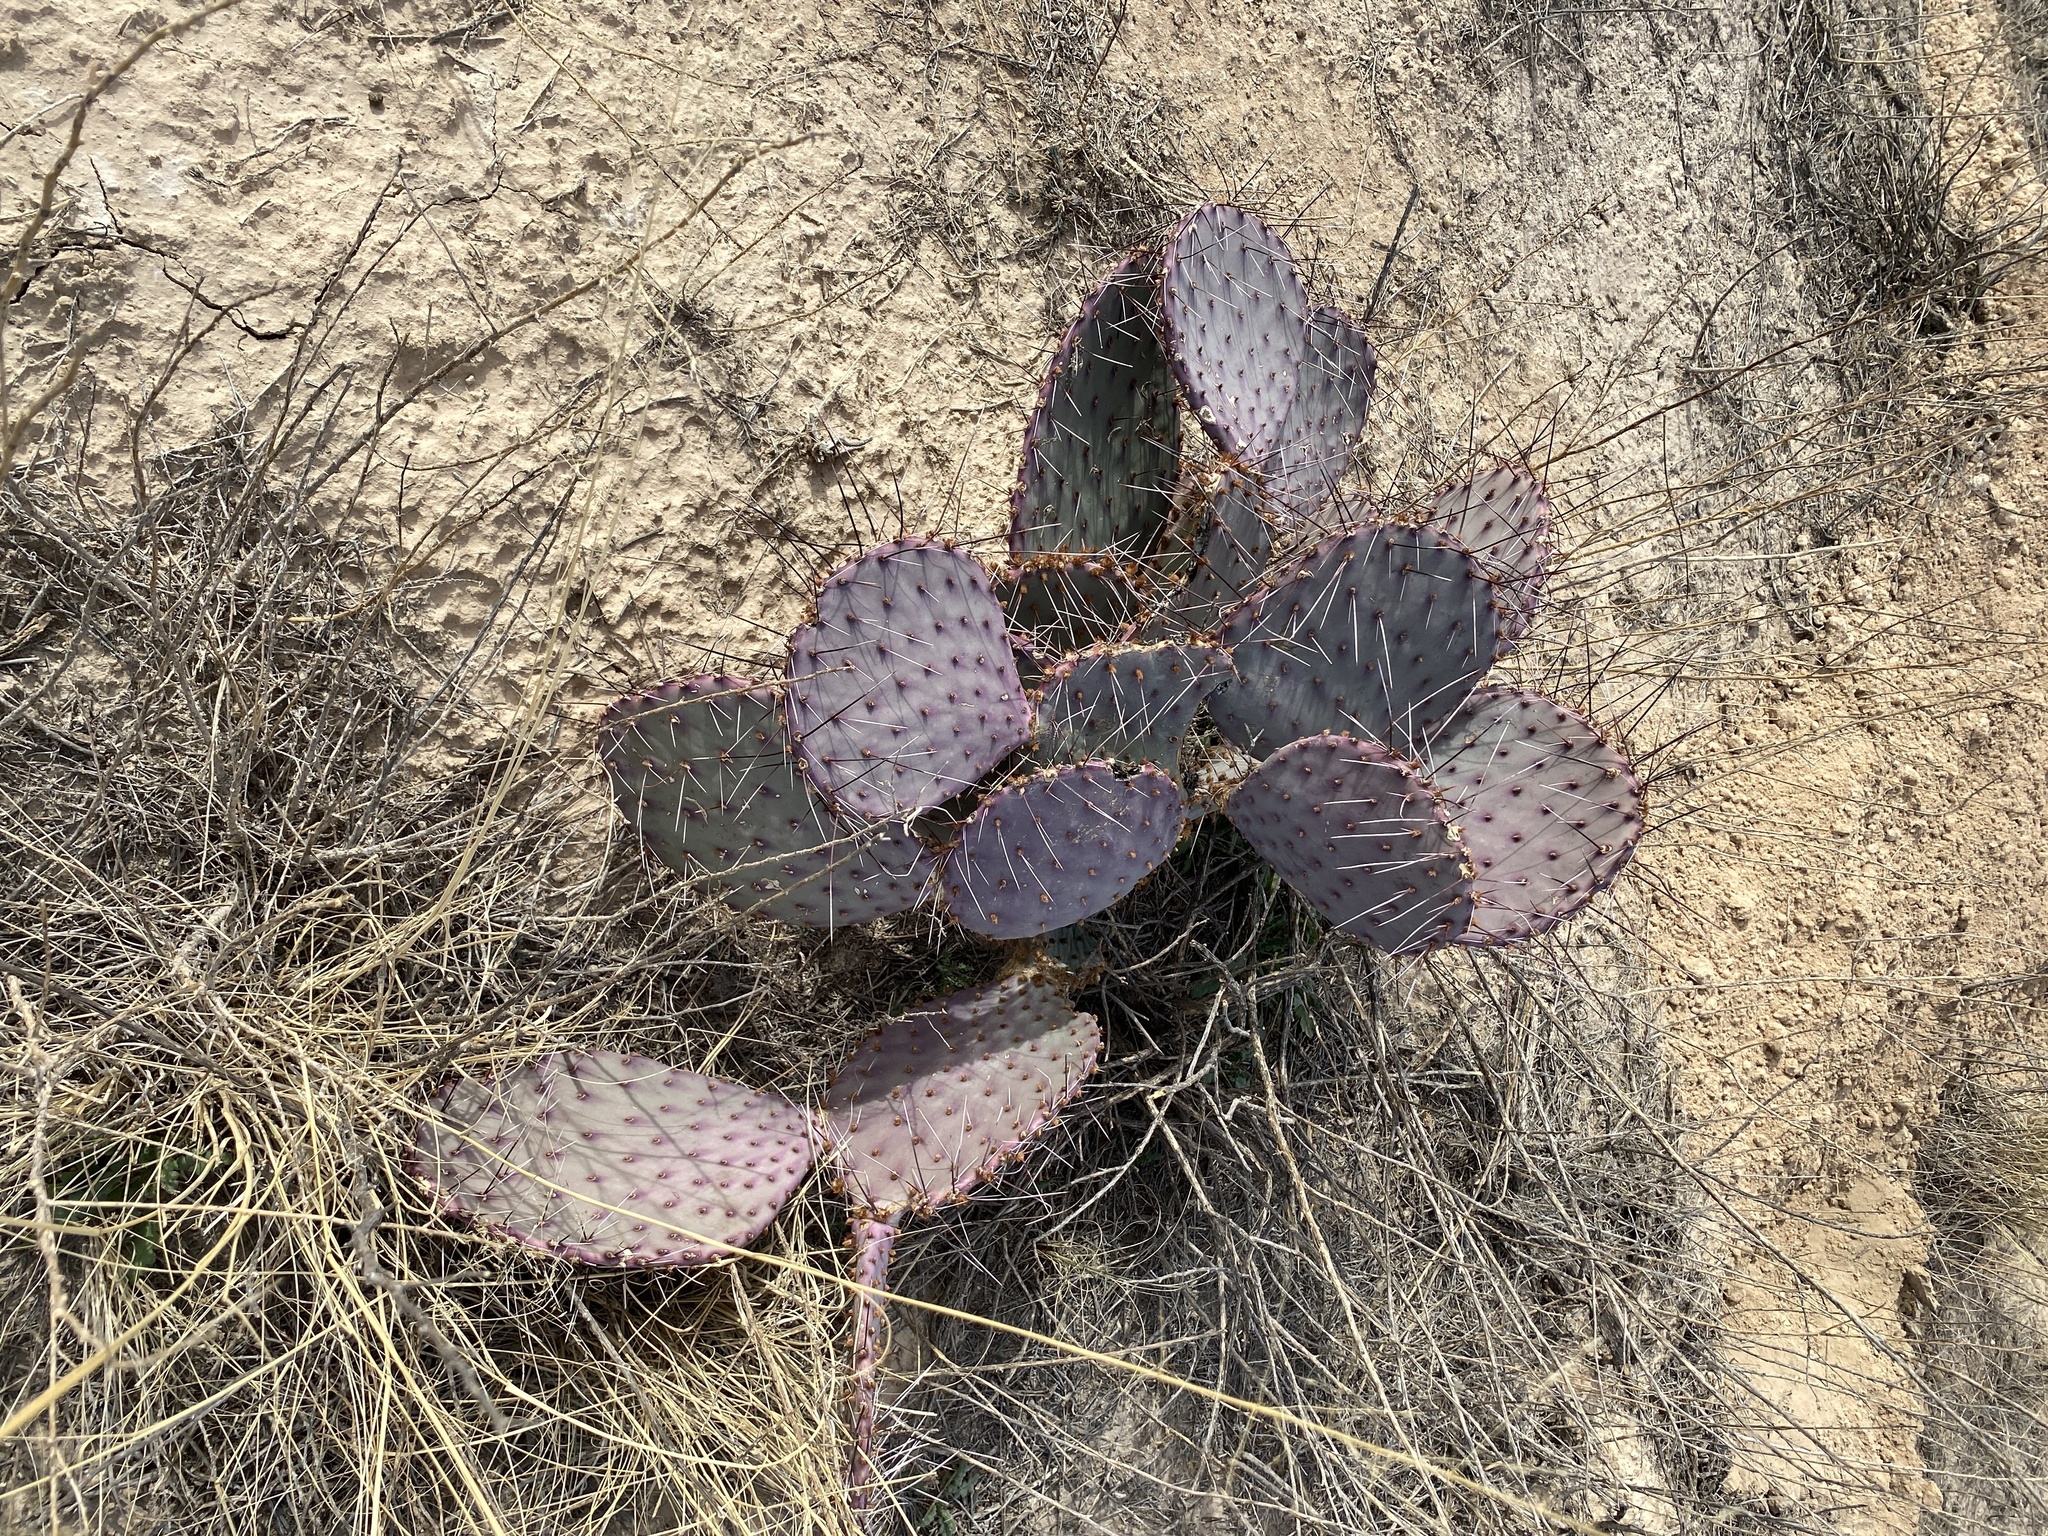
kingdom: Plantae
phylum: Tracheophyta
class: Magnoliopsida
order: Caryophyllales
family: Cactaceae
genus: Opuntia
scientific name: Opuntia macrocentra
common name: Purple prickly-pear
